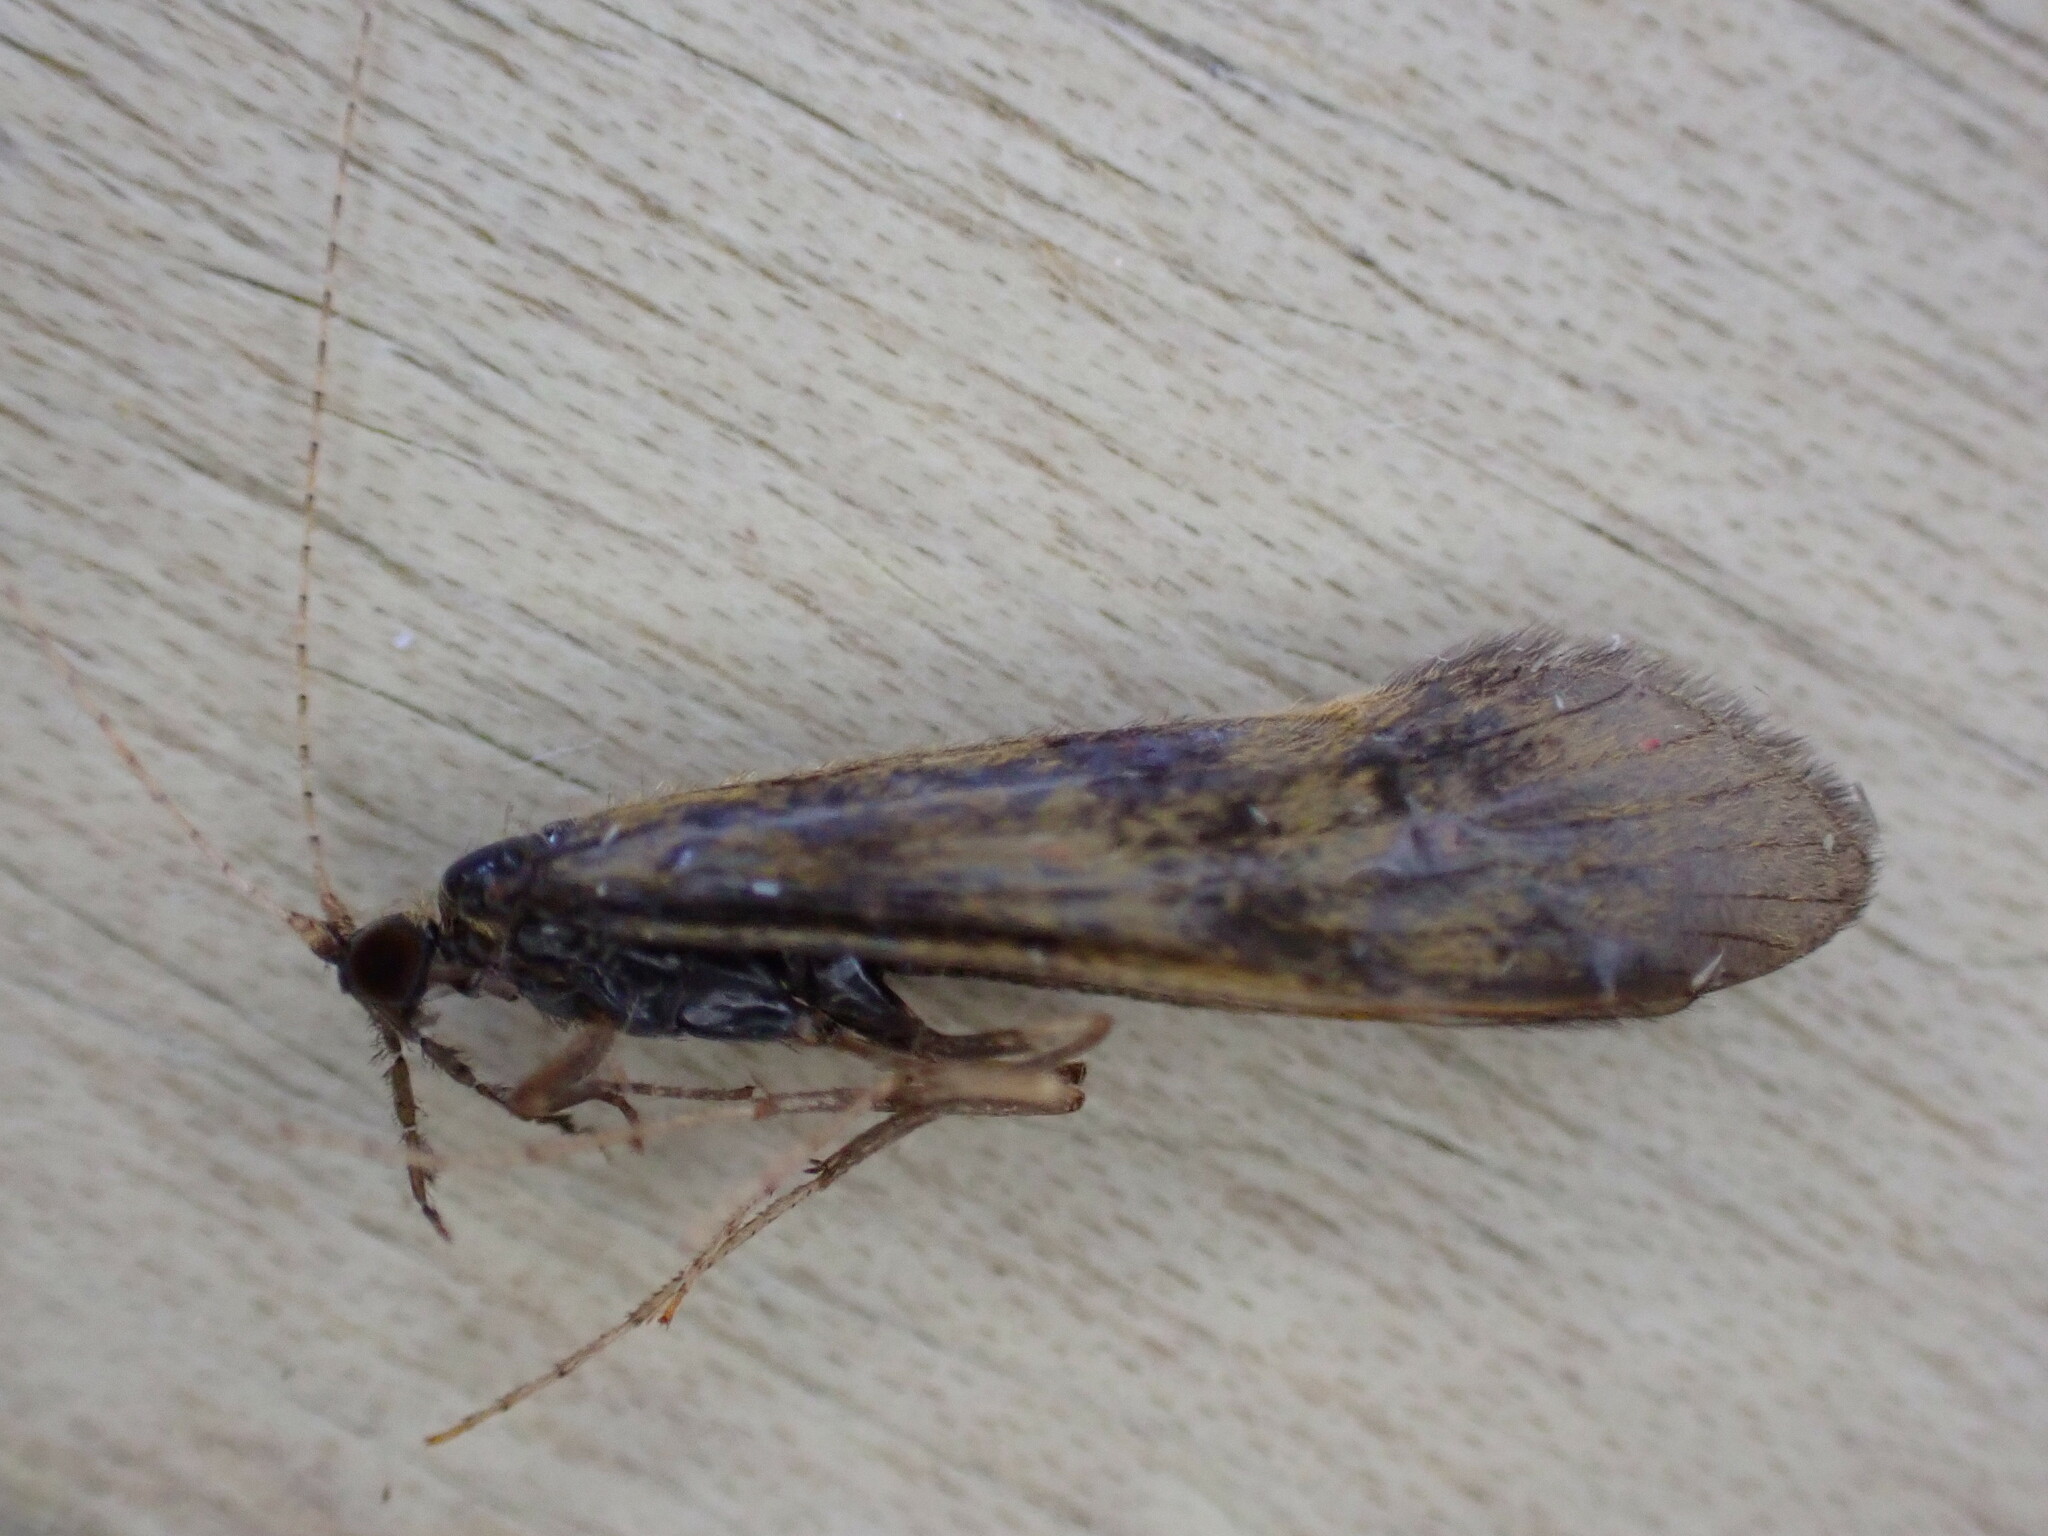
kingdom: Animalia
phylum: Arthropoda
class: Insecta
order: Trichoptera
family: Leptoceridae
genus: Mystacides
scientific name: Mystacides longicornis
